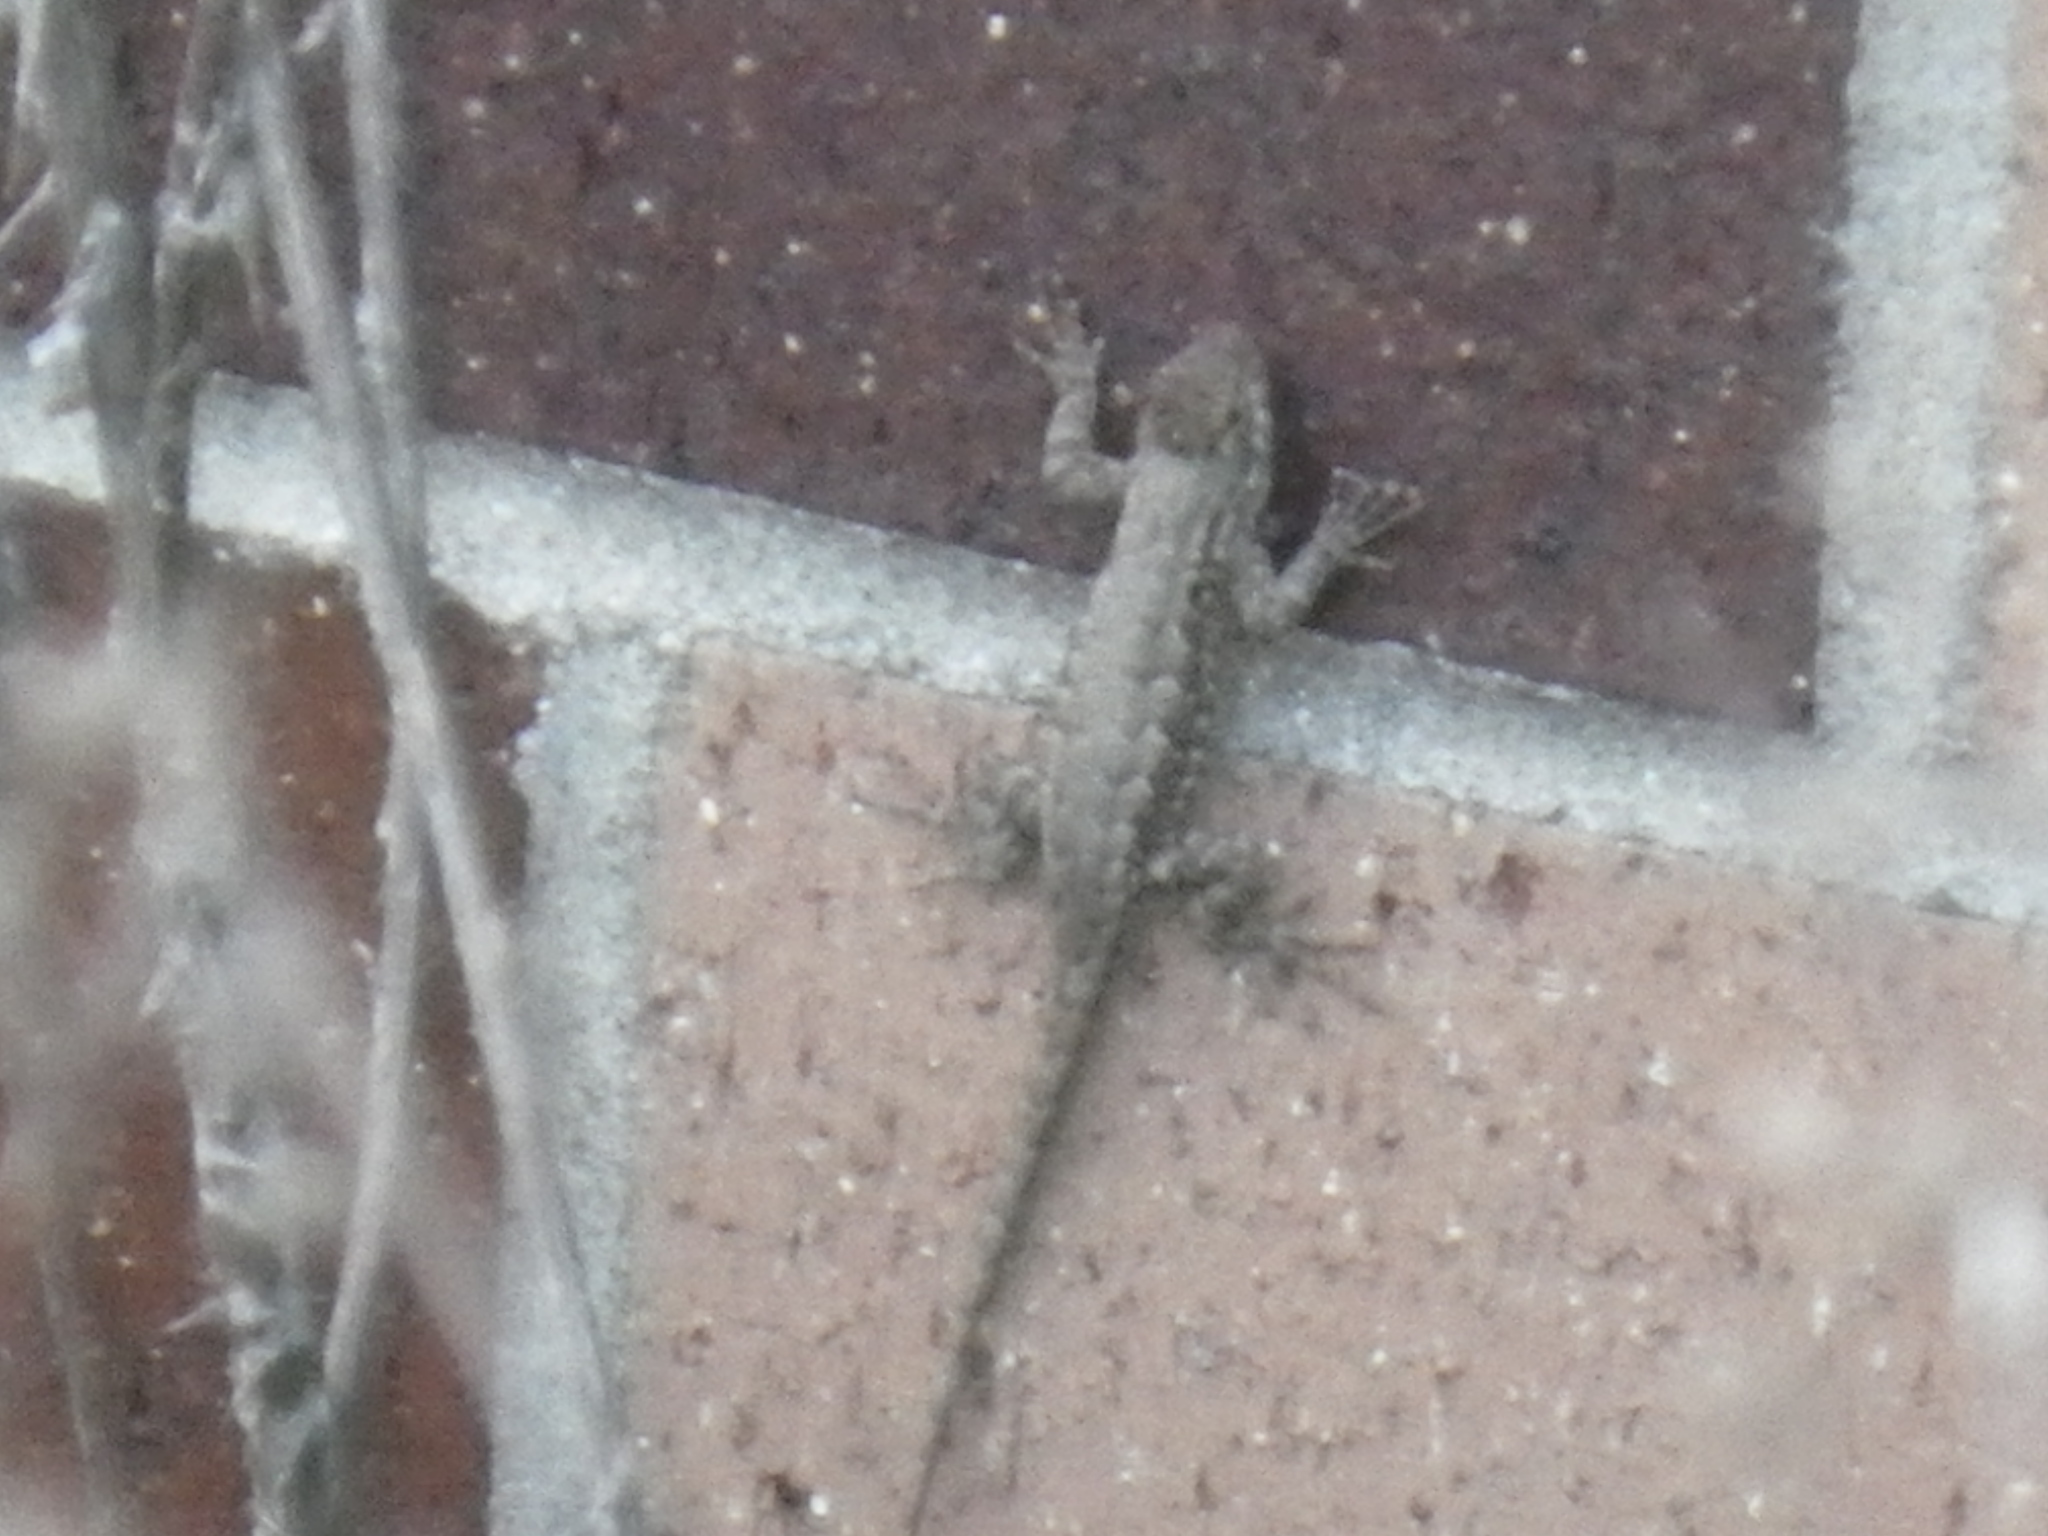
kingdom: Animalia
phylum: Chordata
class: Squamata
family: Phrynosomatidae
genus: Sceloporus
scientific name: Sceloporus occidentalis
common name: Western fence lizard
